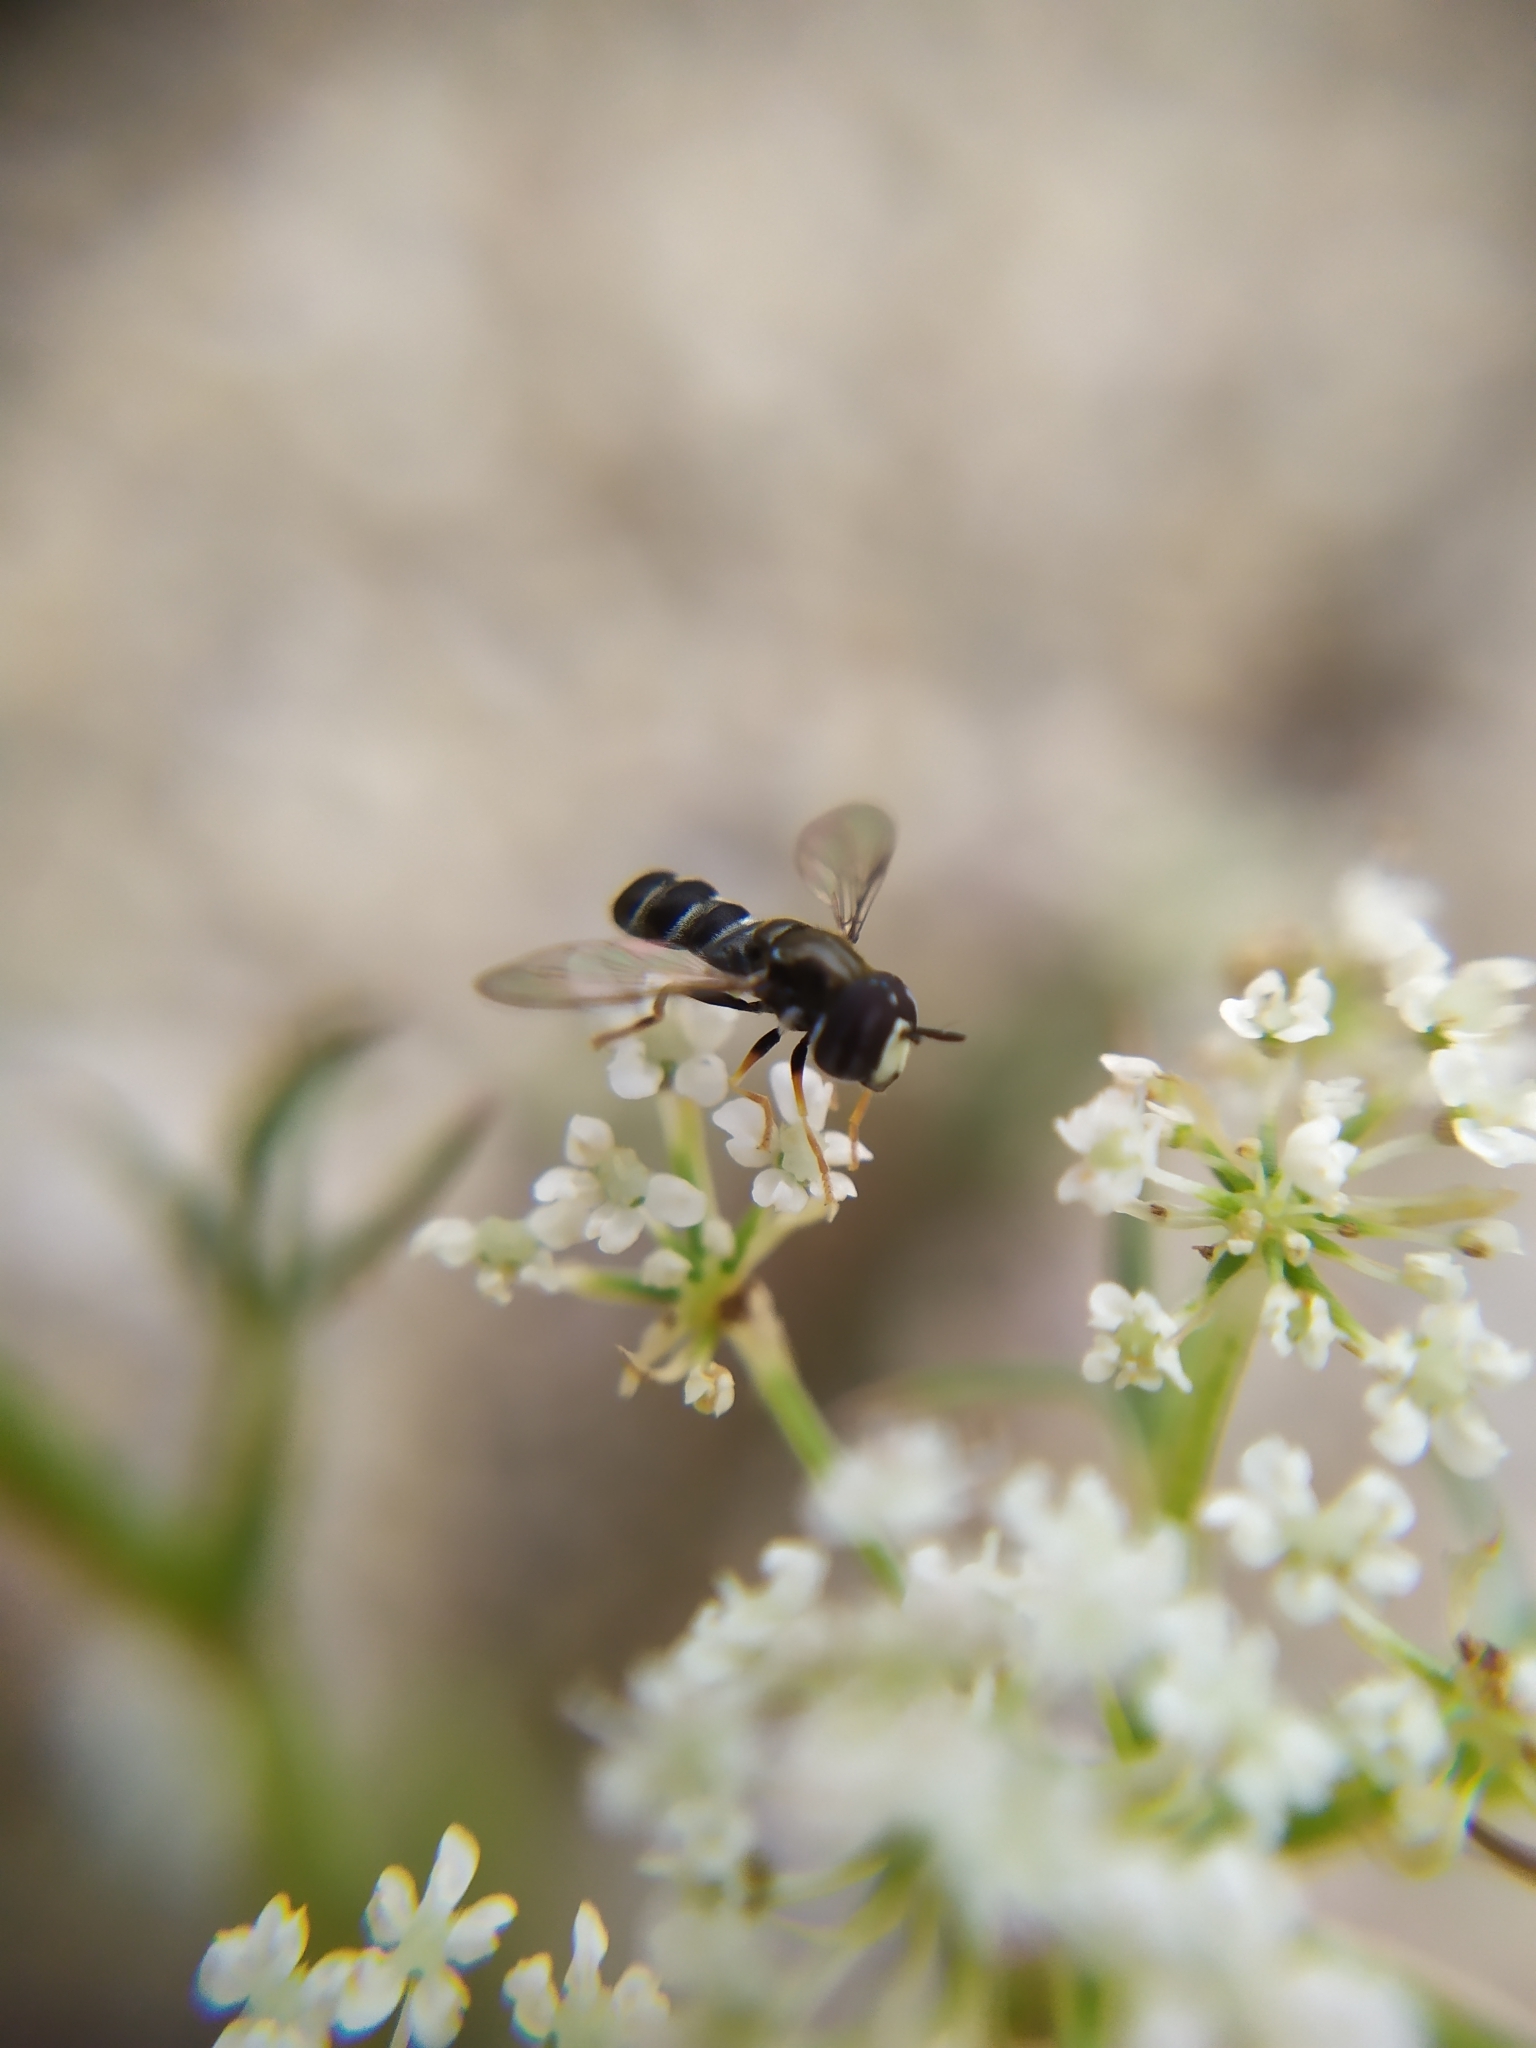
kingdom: Animalia
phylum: Arthropoda
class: Insecta
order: Diptera
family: Syrphidae
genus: Paragus
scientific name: Paragus pecchiolii
